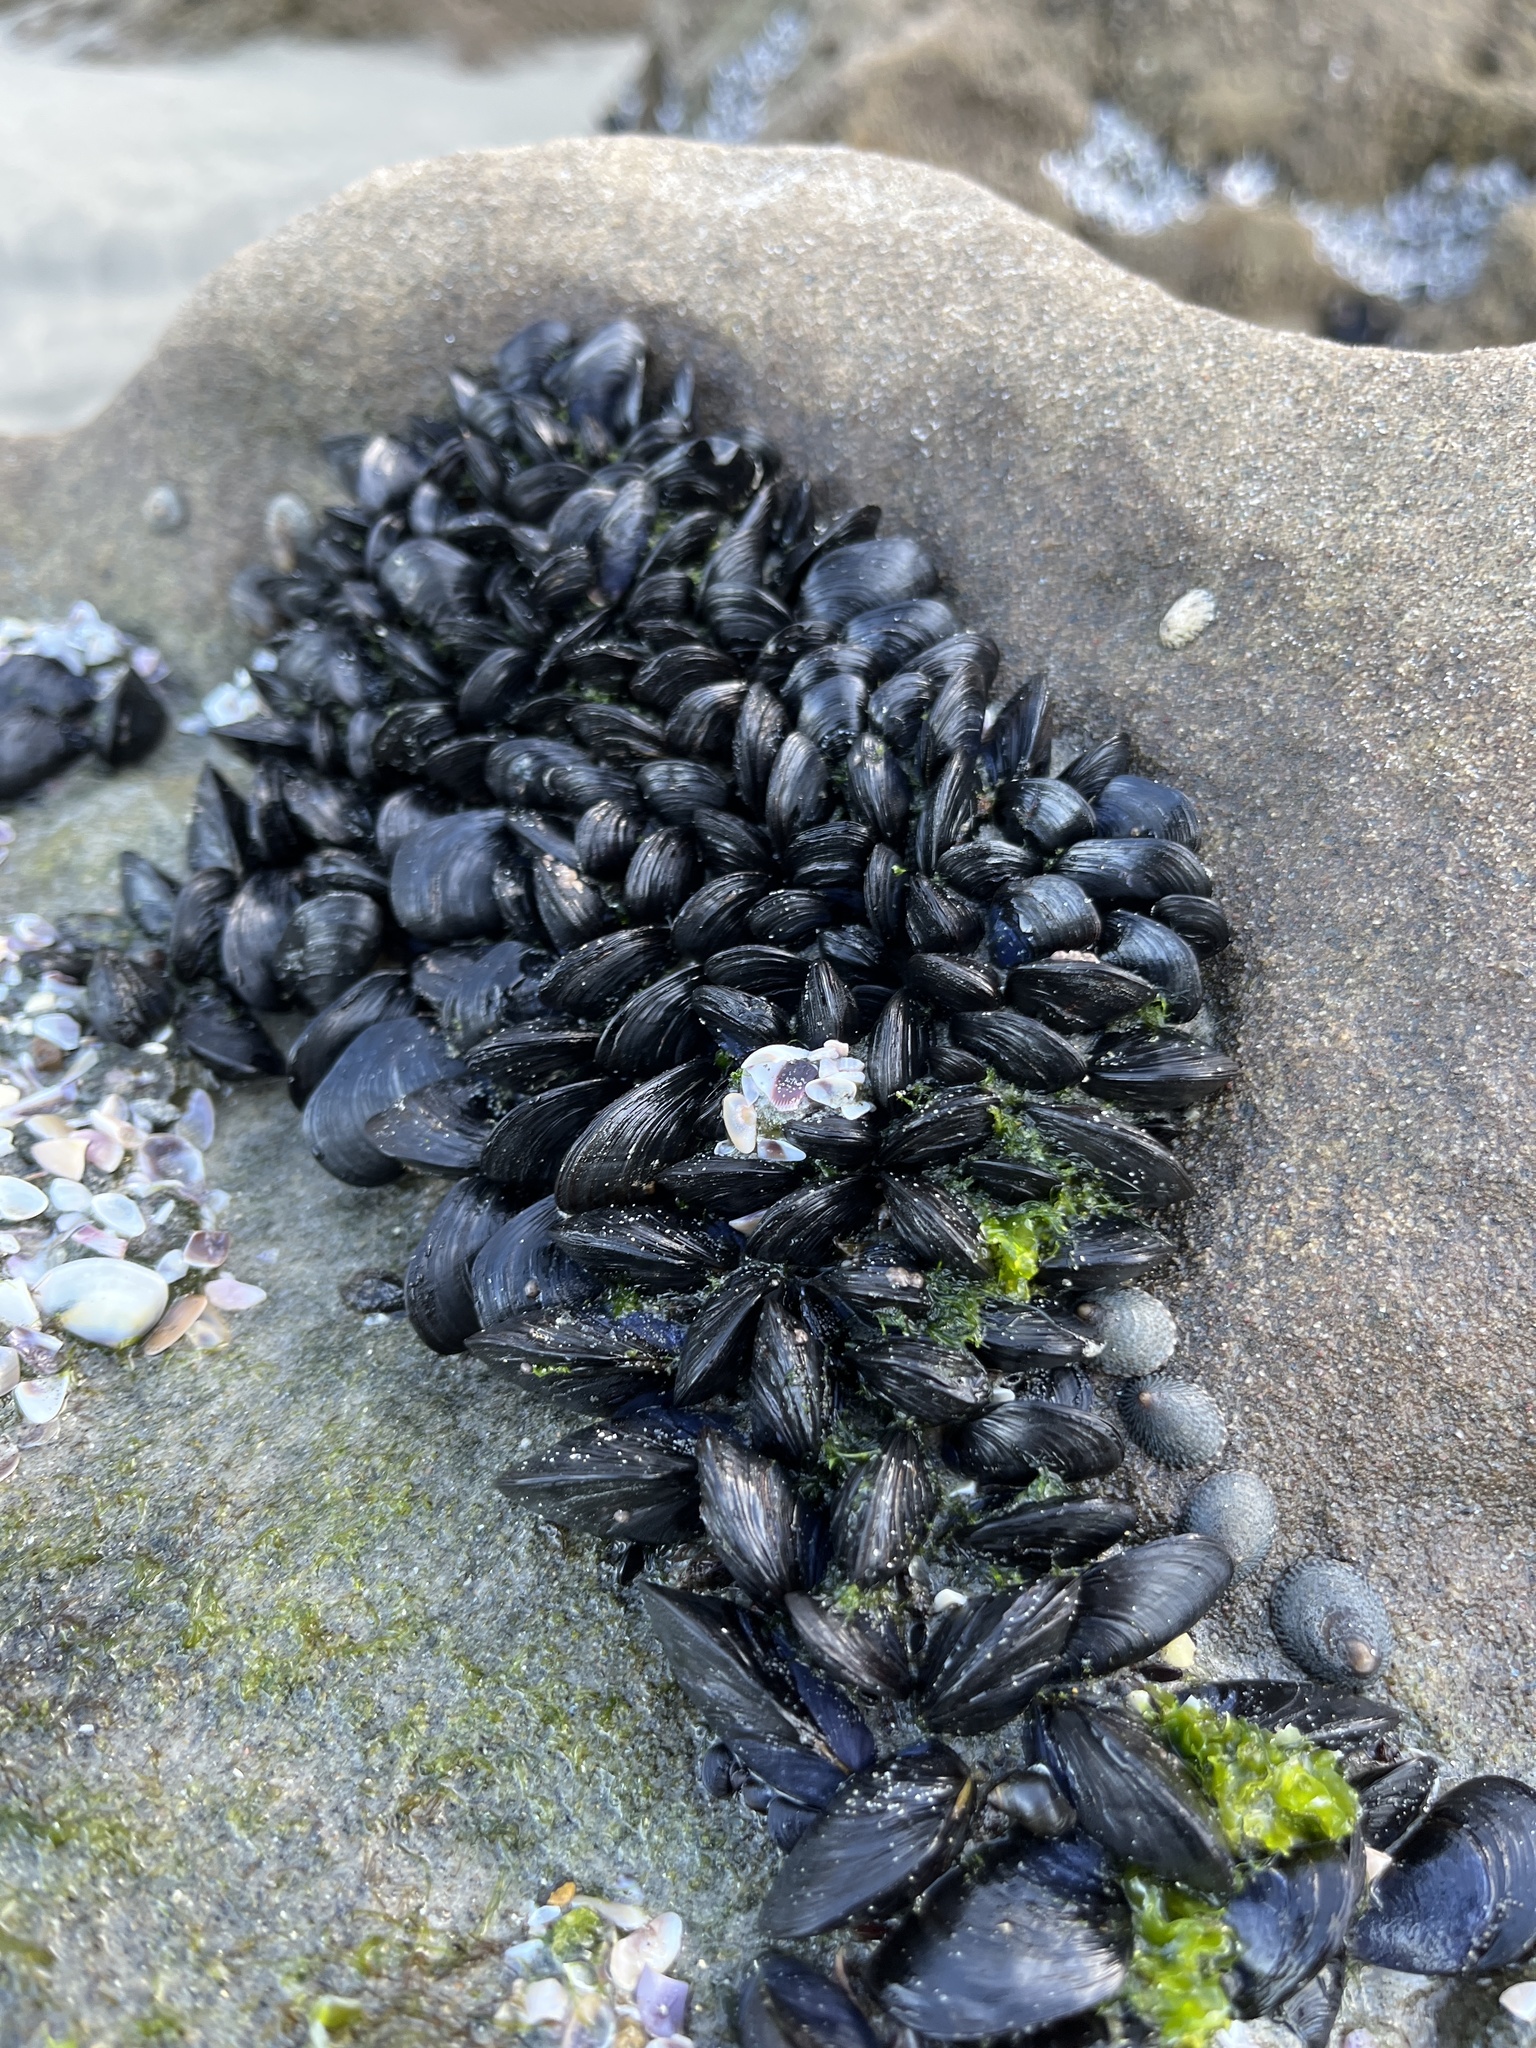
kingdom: Animalia
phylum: Mollusca
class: Bivalvia
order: Mytilida
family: Mytilidae
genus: Mytilus
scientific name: Mytilus galloprovincialis
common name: Mediterranean mussel
